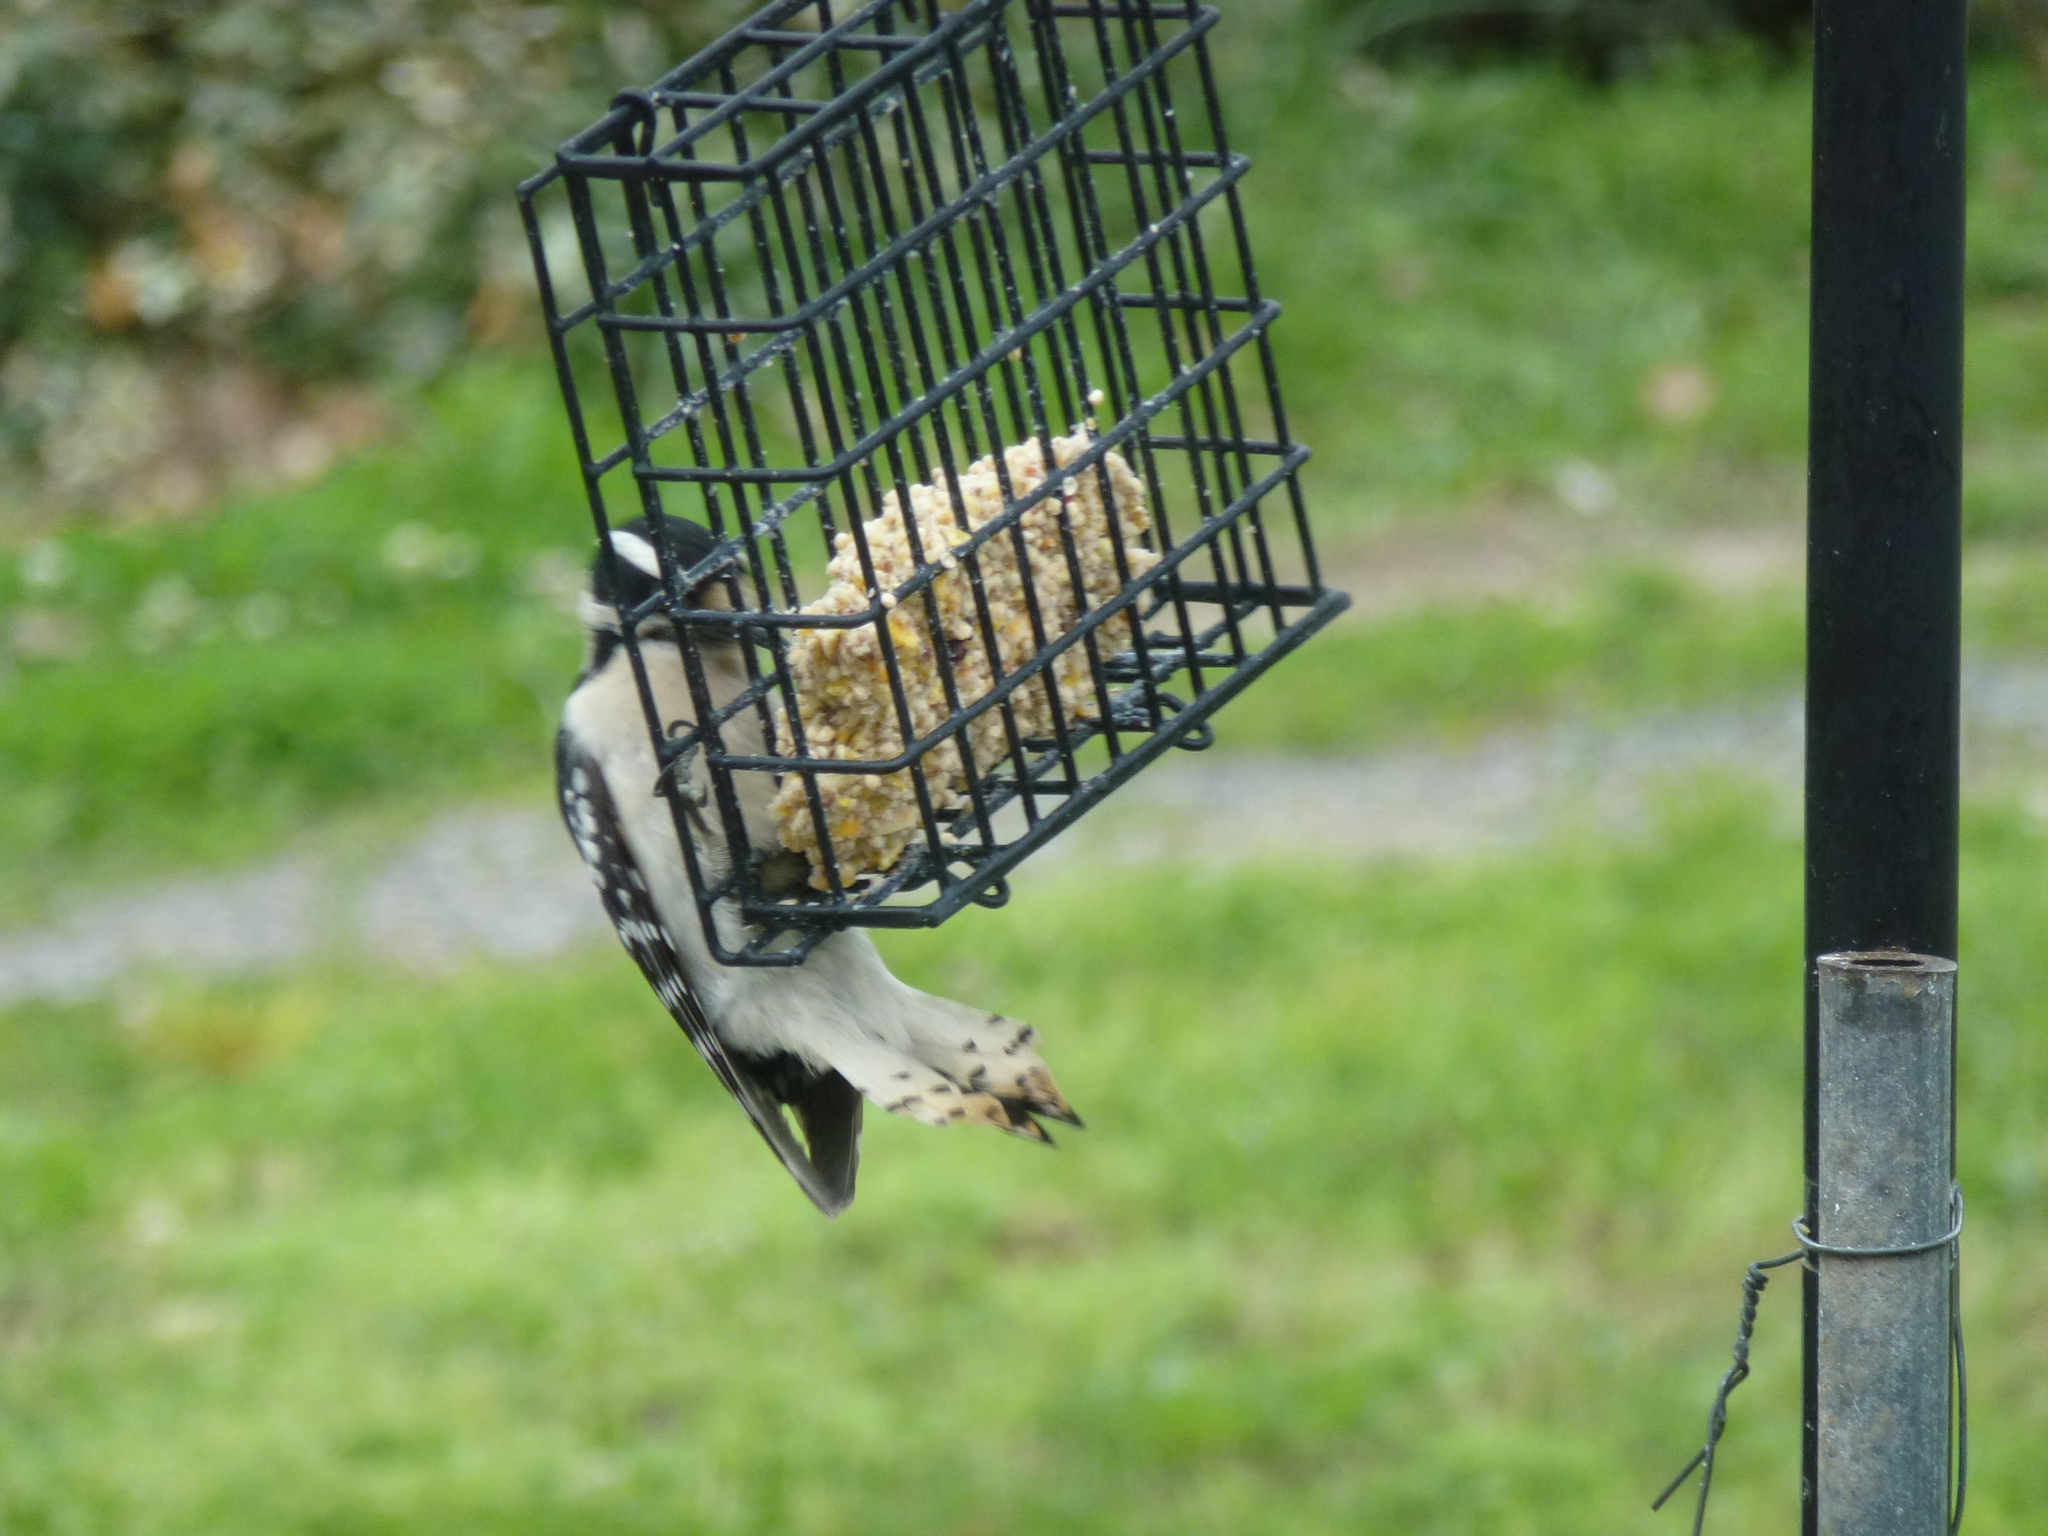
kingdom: Animalia
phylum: Chordata
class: Aves
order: Piciformes
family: Picidae
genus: Dryobates
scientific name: Dryobates pubescens
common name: Downy woodpecker
